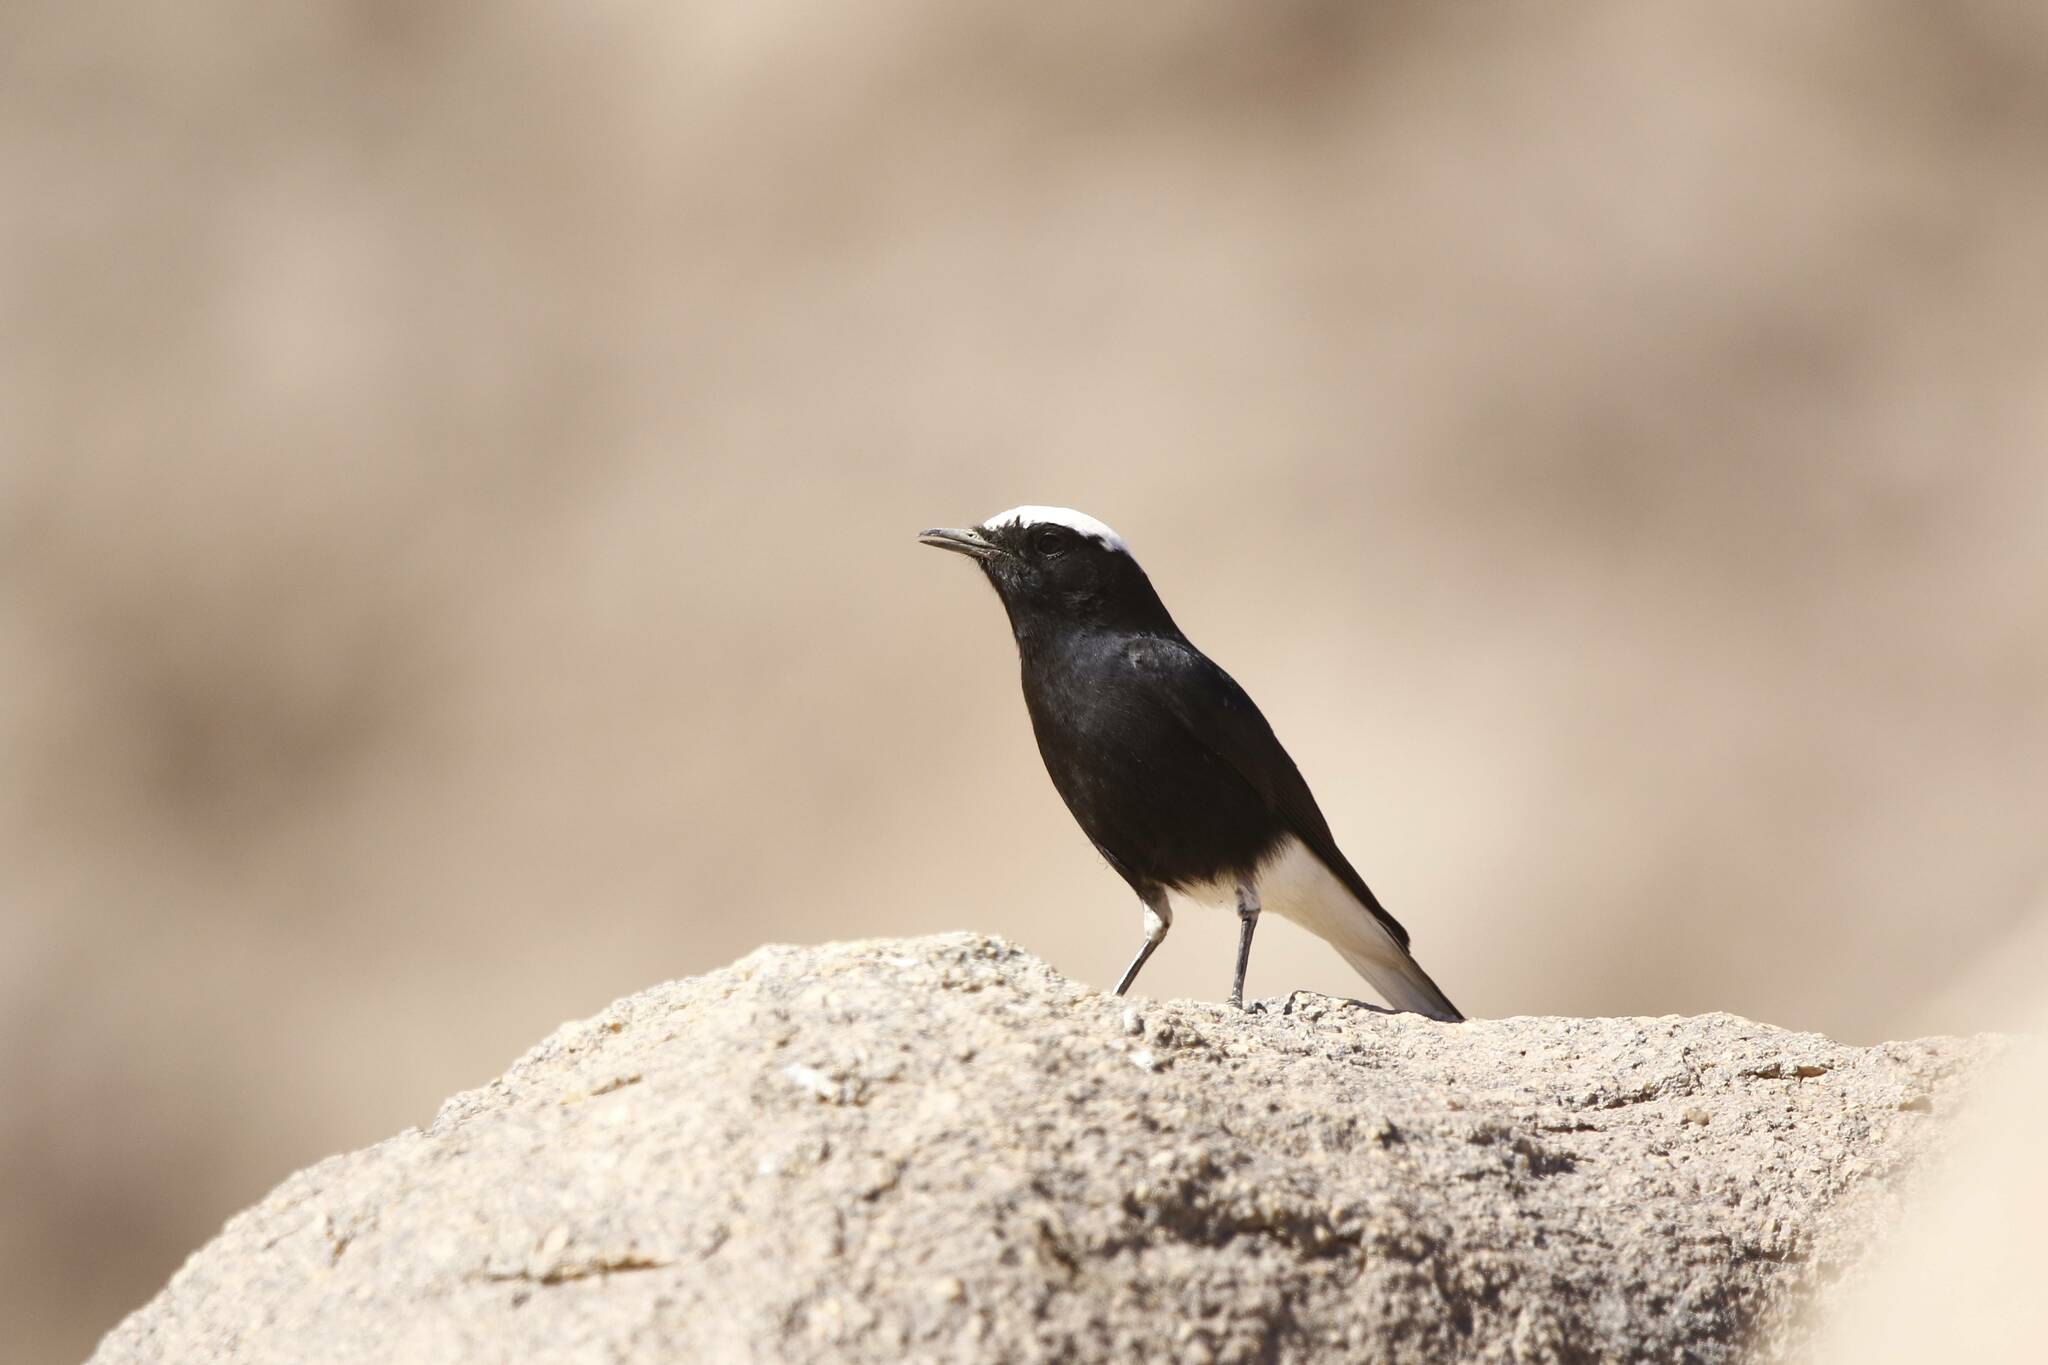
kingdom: Animalia
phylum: Chordata
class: Aves
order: Passeriformes
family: Muscicapidae
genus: Oenanthe
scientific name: Oenanthe leucopyga
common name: White-crowned wheatear
